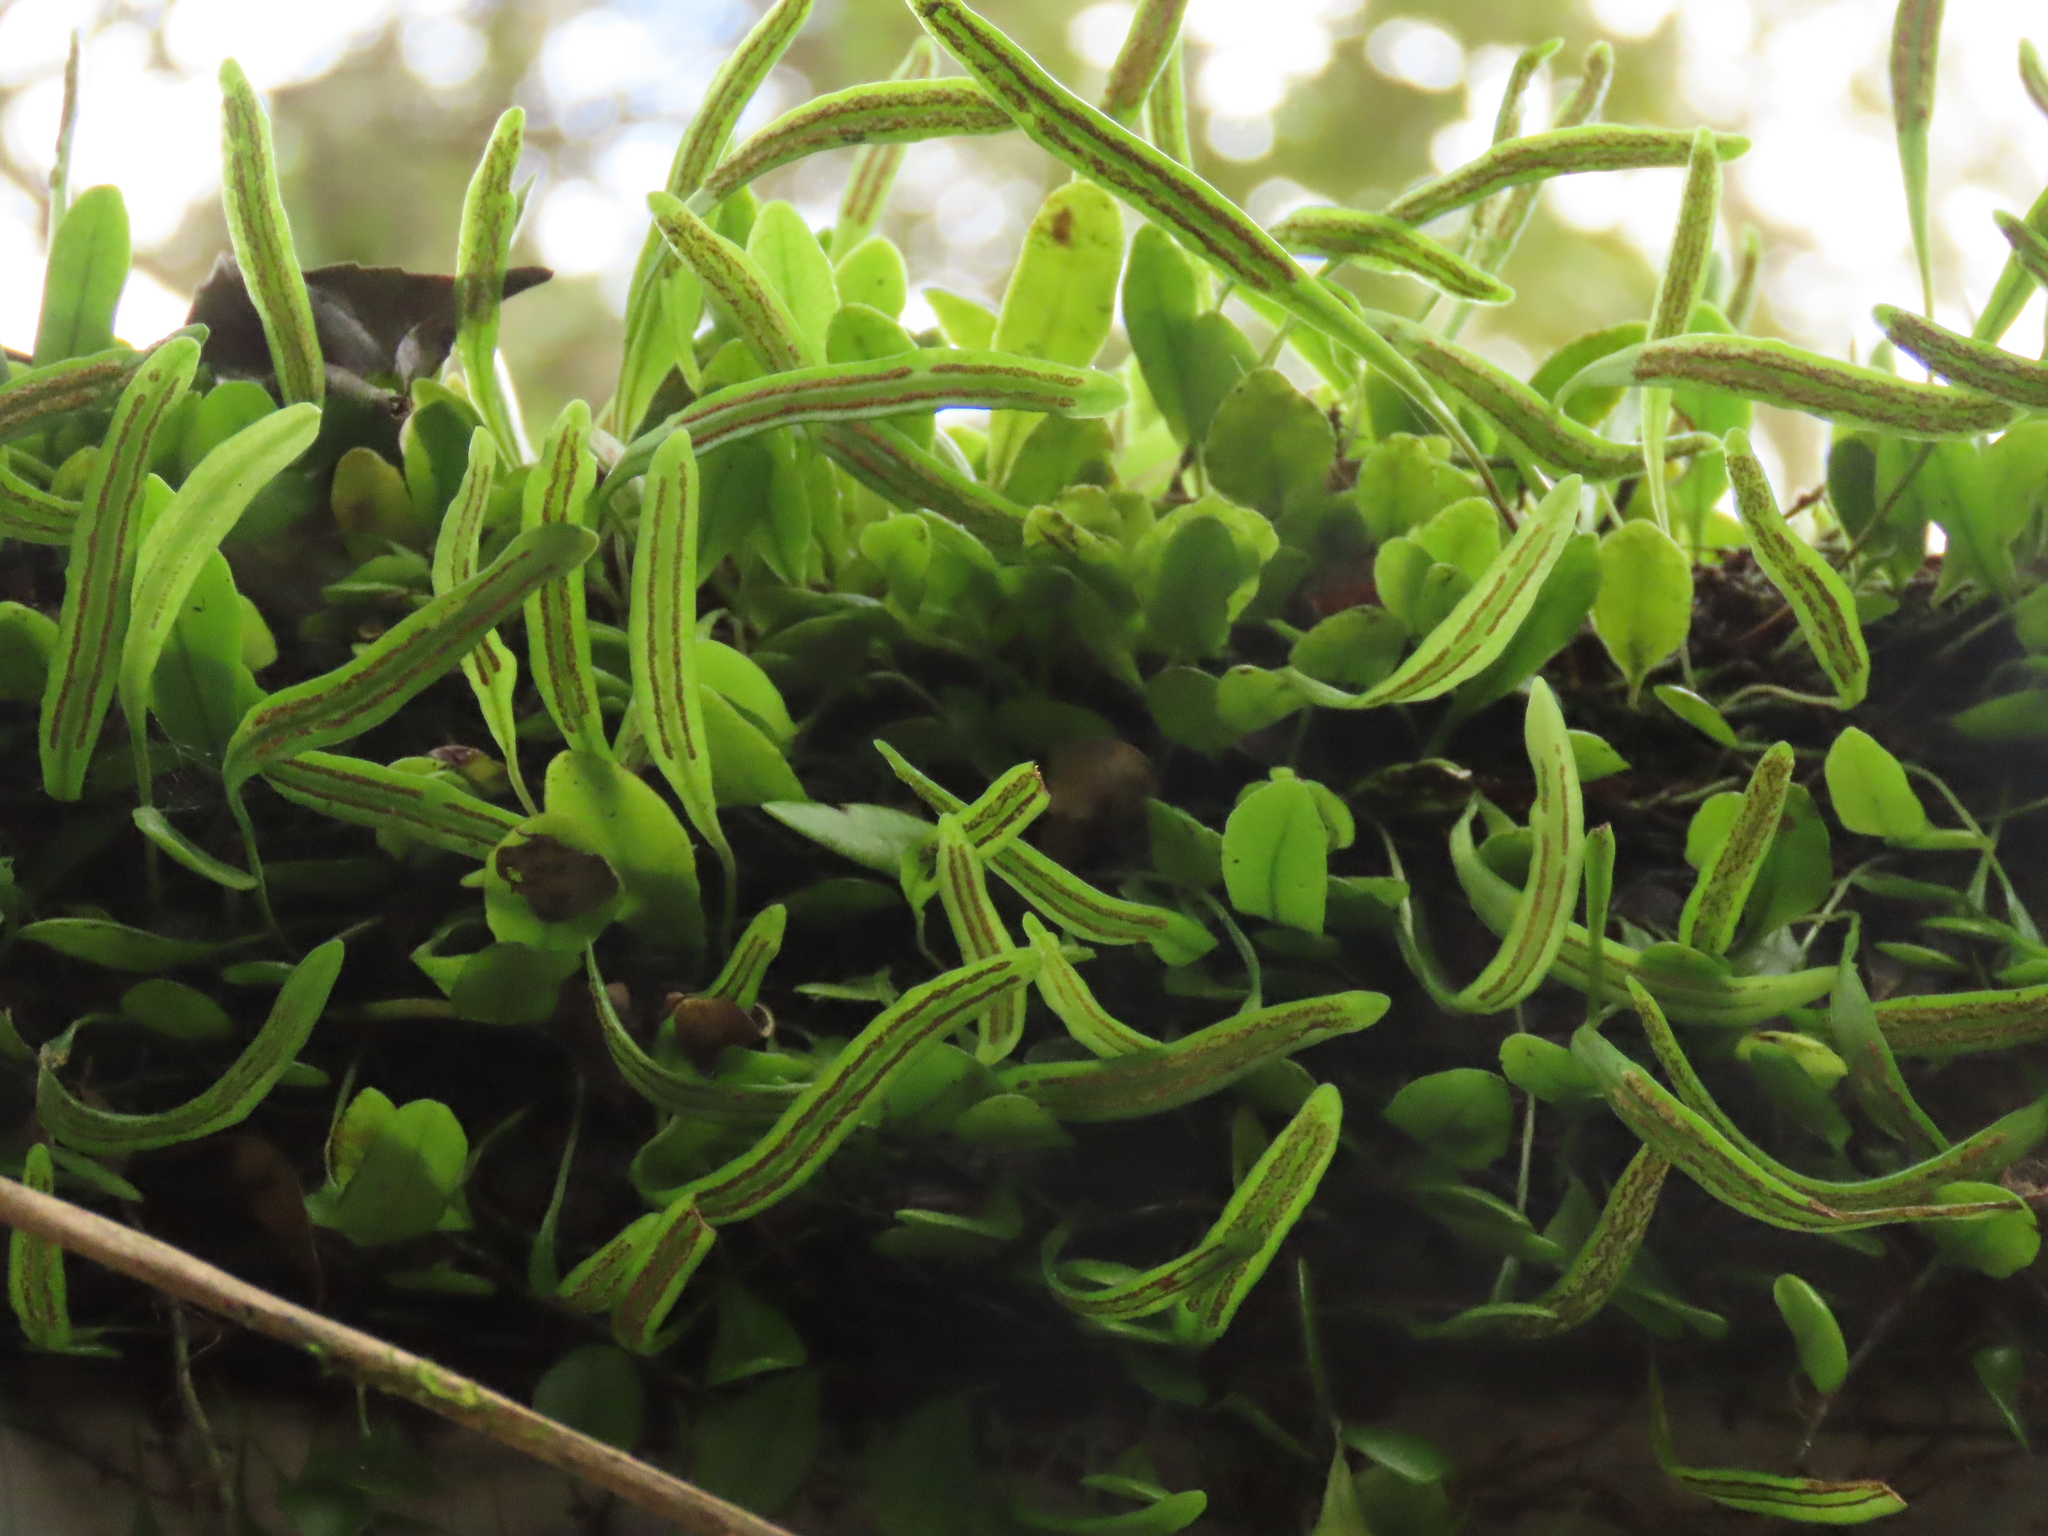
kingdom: Plantae
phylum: Tracheophyta
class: Polypodiopsida
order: Polypodiales
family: Polypodiaceae
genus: Lepisorus
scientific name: Lepisorus microphyllus
